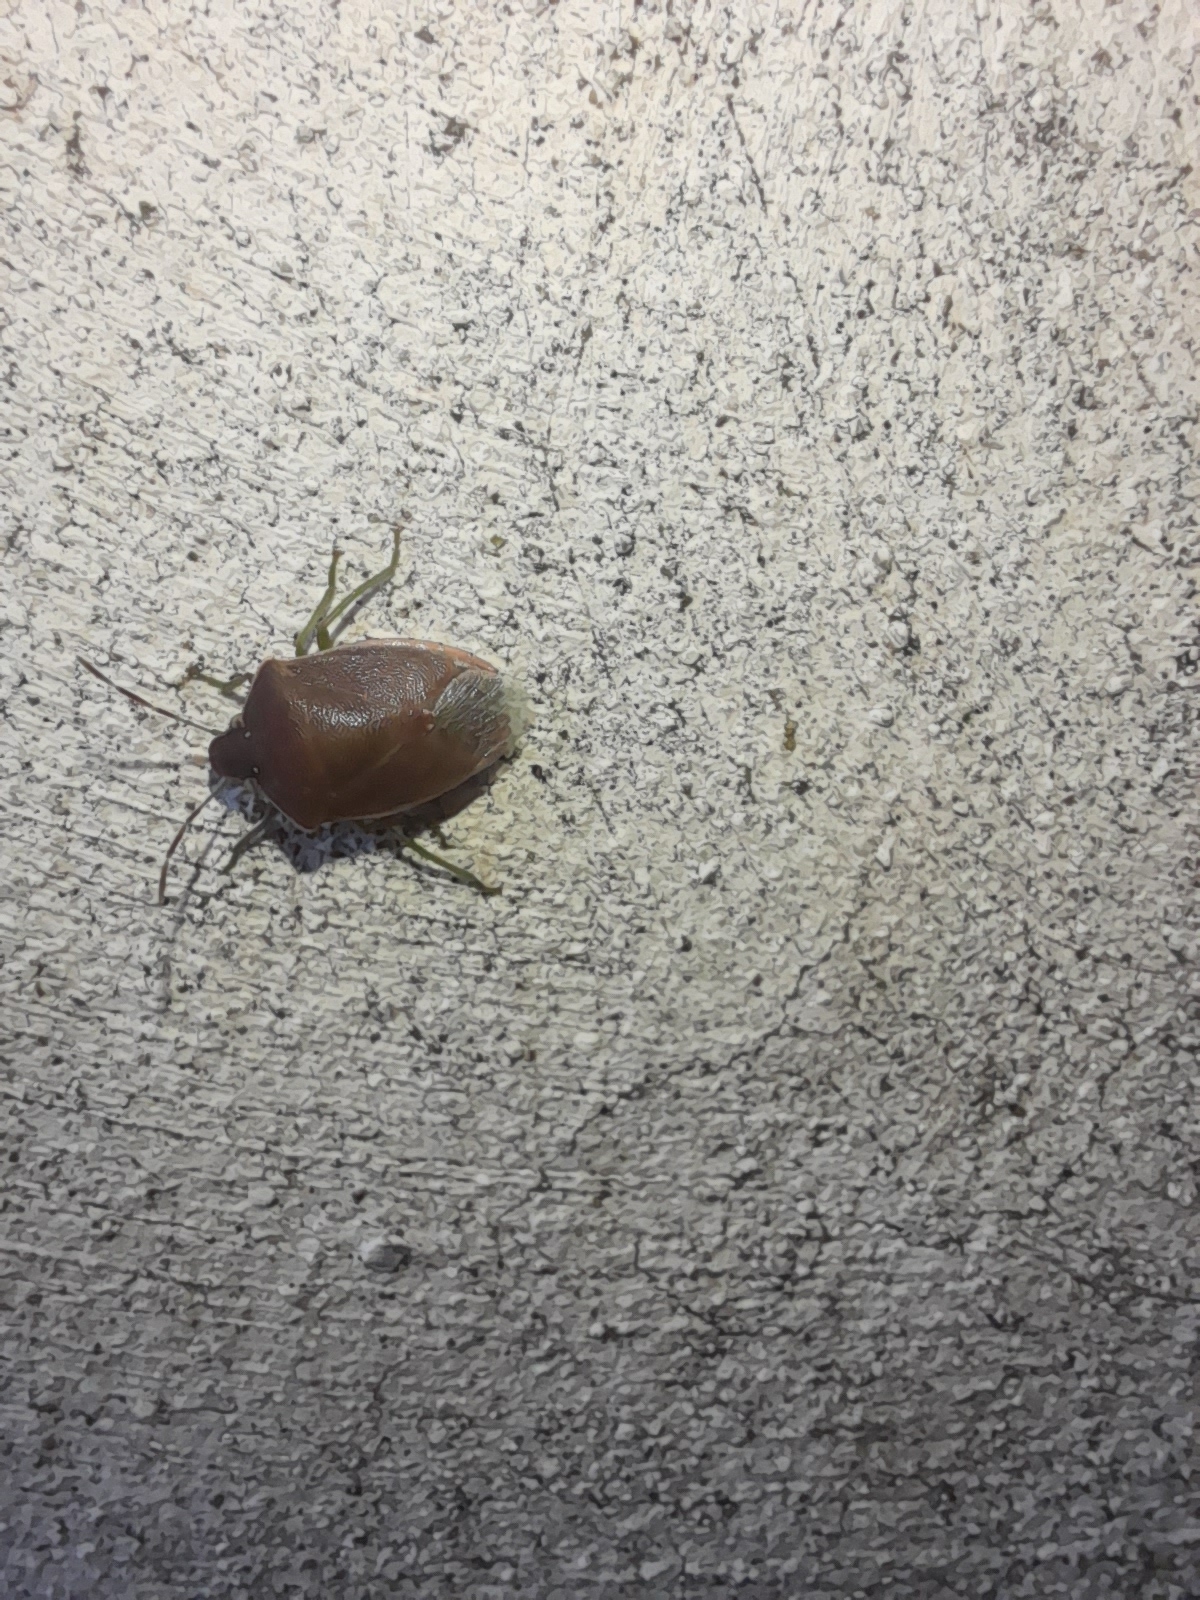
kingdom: Animalia
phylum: Arthropoda
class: Insecta
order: Hemiptera
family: Pentatomidae
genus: Acrosternum
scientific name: Acrosternum heegeri
